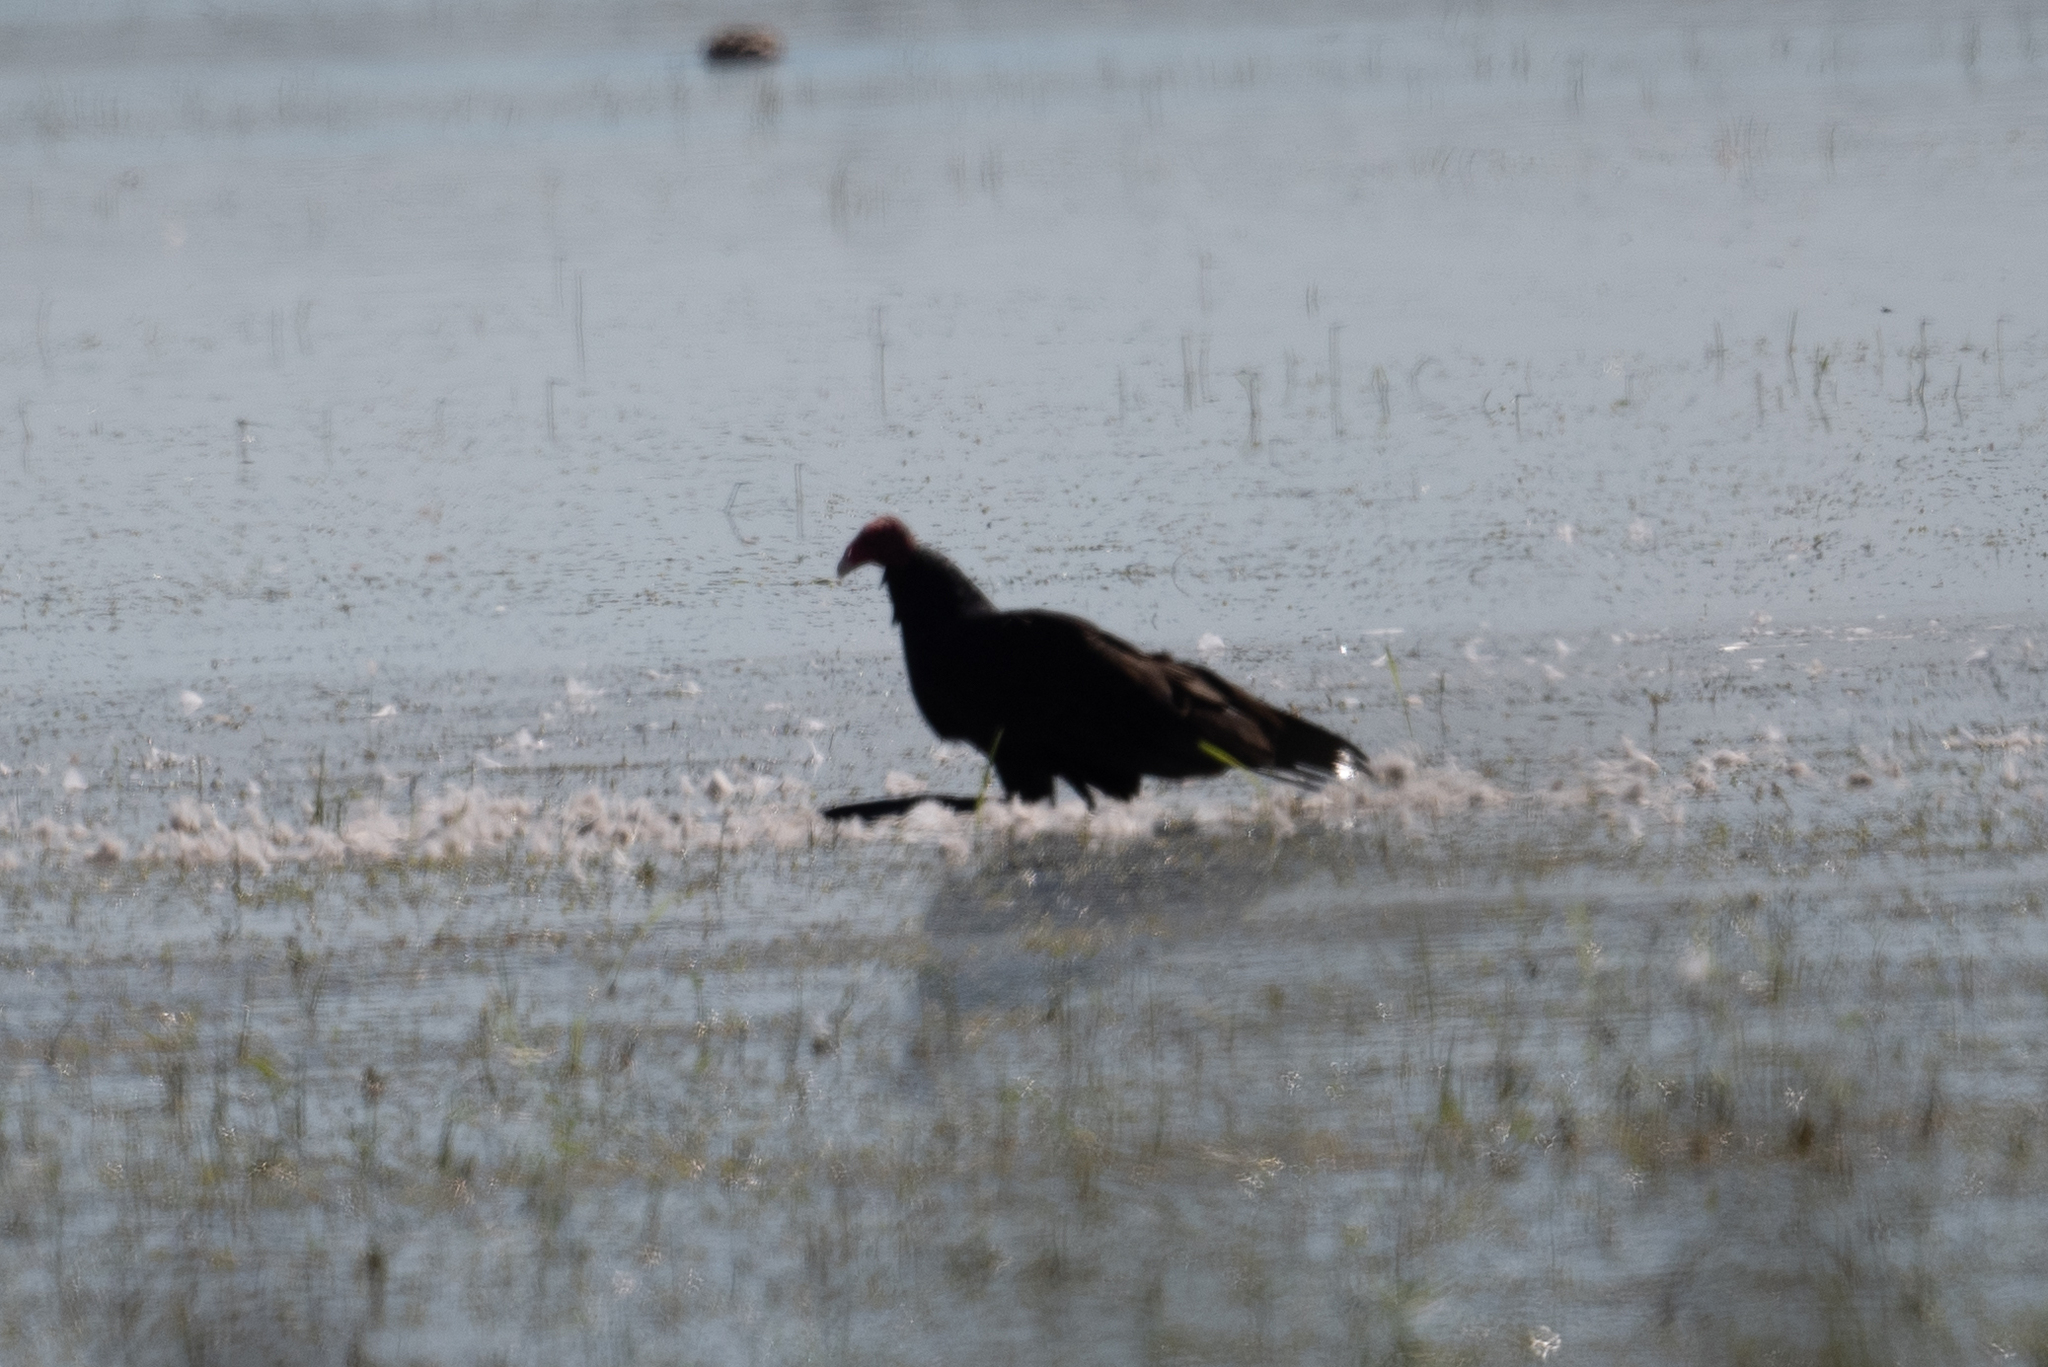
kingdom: Animalia
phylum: Chordata
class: Aves
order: Accipitriformes
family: Cathartidae
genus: Cathartes
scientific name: Cathartes aura
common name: Turkey vulture
